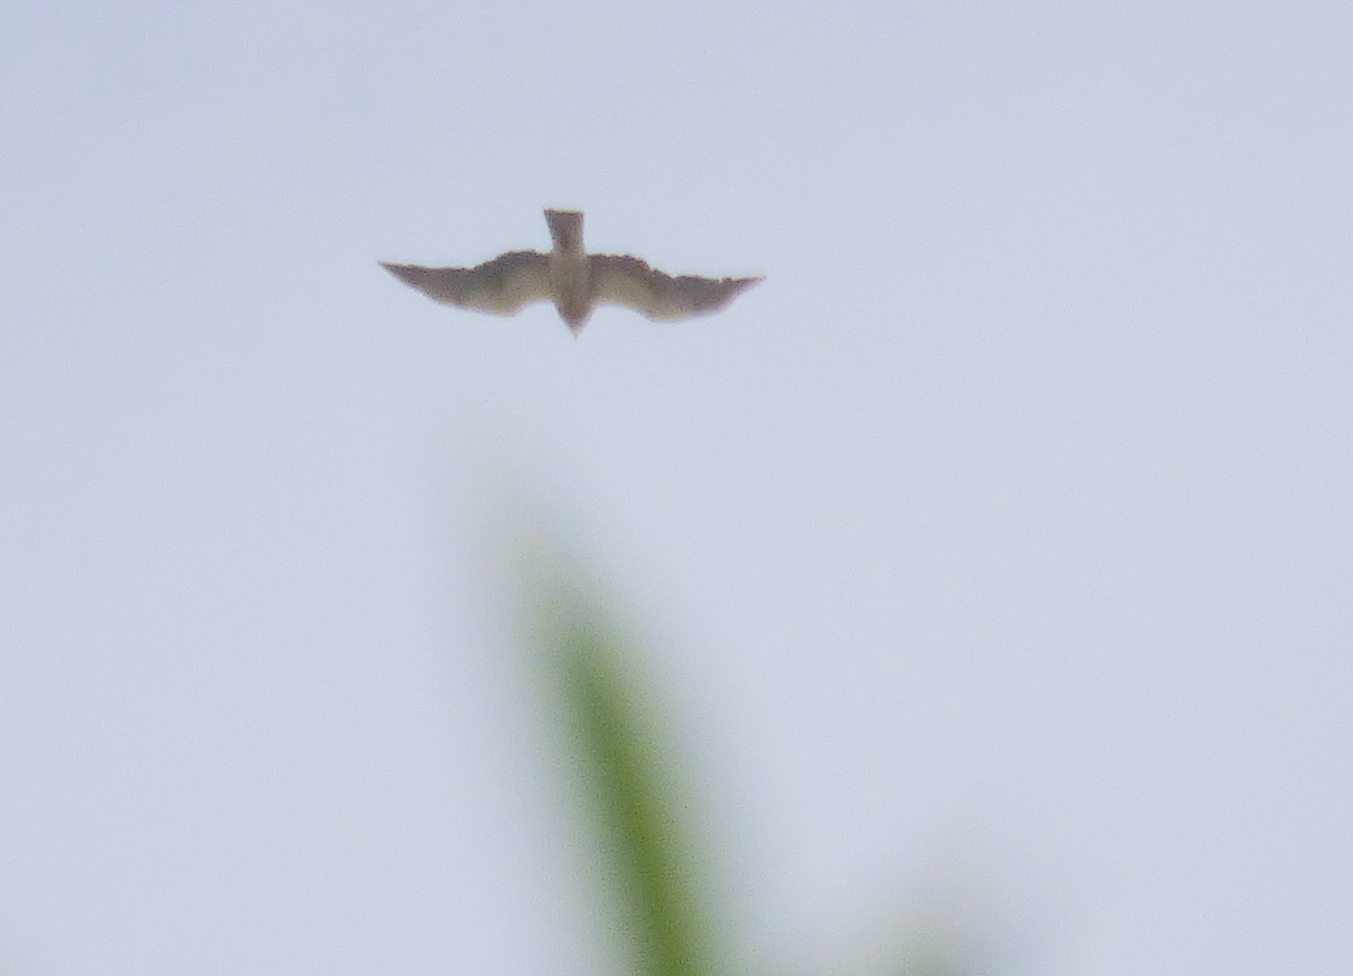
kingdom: Animalia
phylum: Chordata
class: Aves
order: Accipitriformes
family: Accipitridae
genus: Buteo
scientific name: Buteo swainsoni
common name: Swainson's hawk
